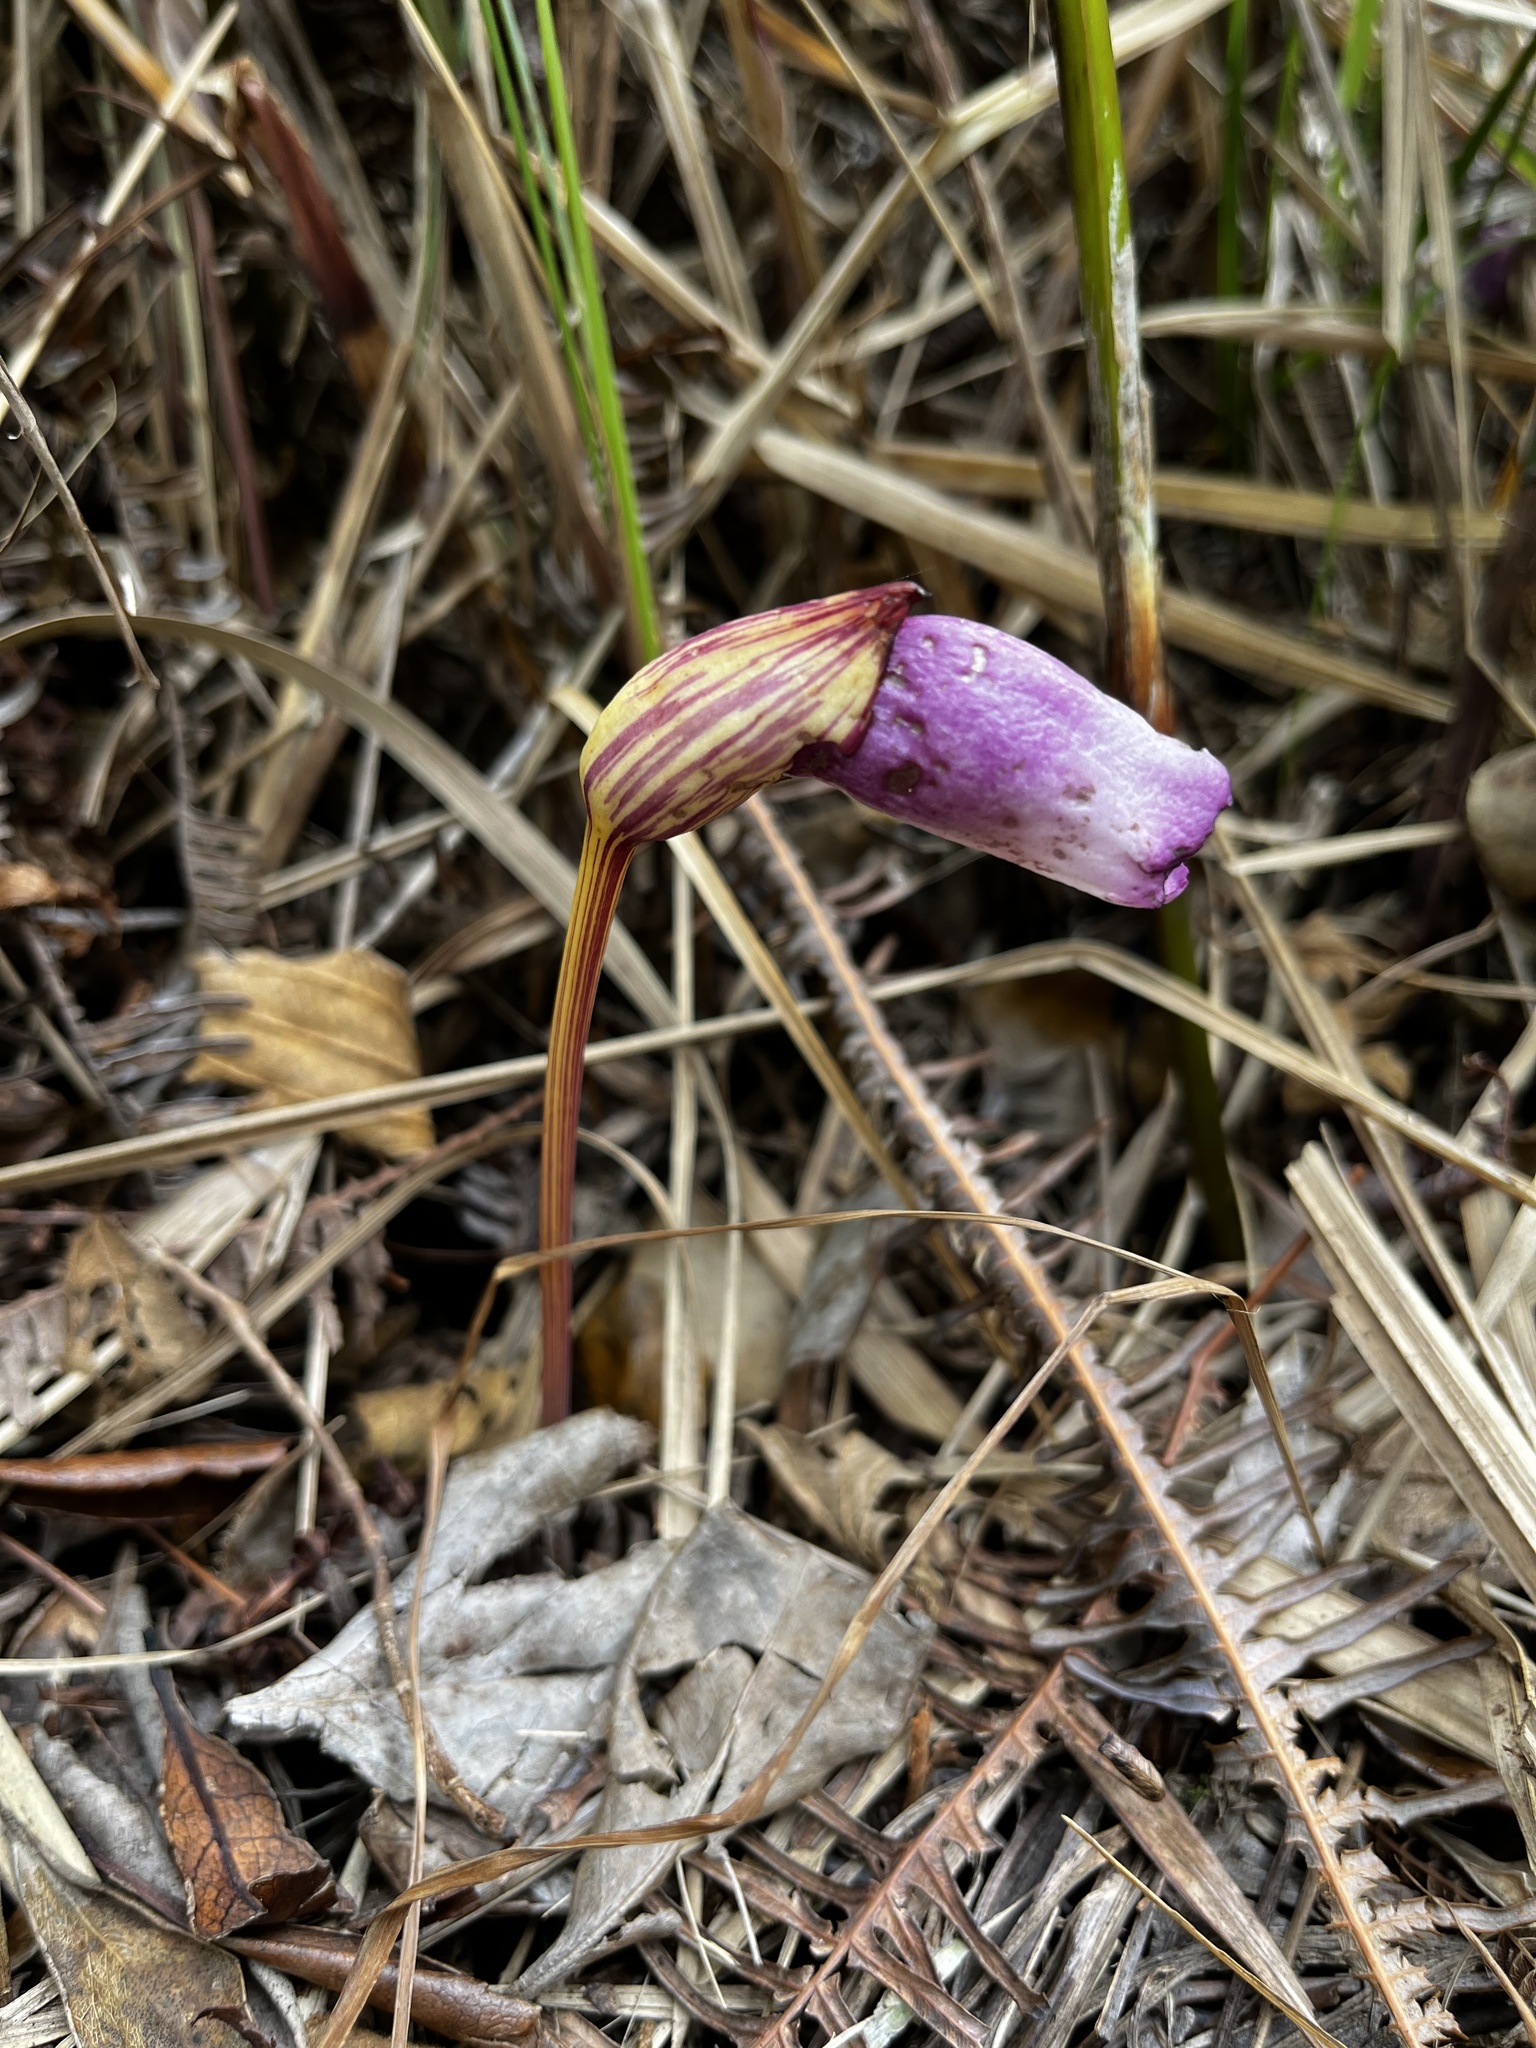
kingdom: Plantae
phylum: Tracheophyta
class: Magnoliopsida
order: Lamiales
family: Orobanchaceae
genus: Aeginetia
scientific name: Aeginetia indica
